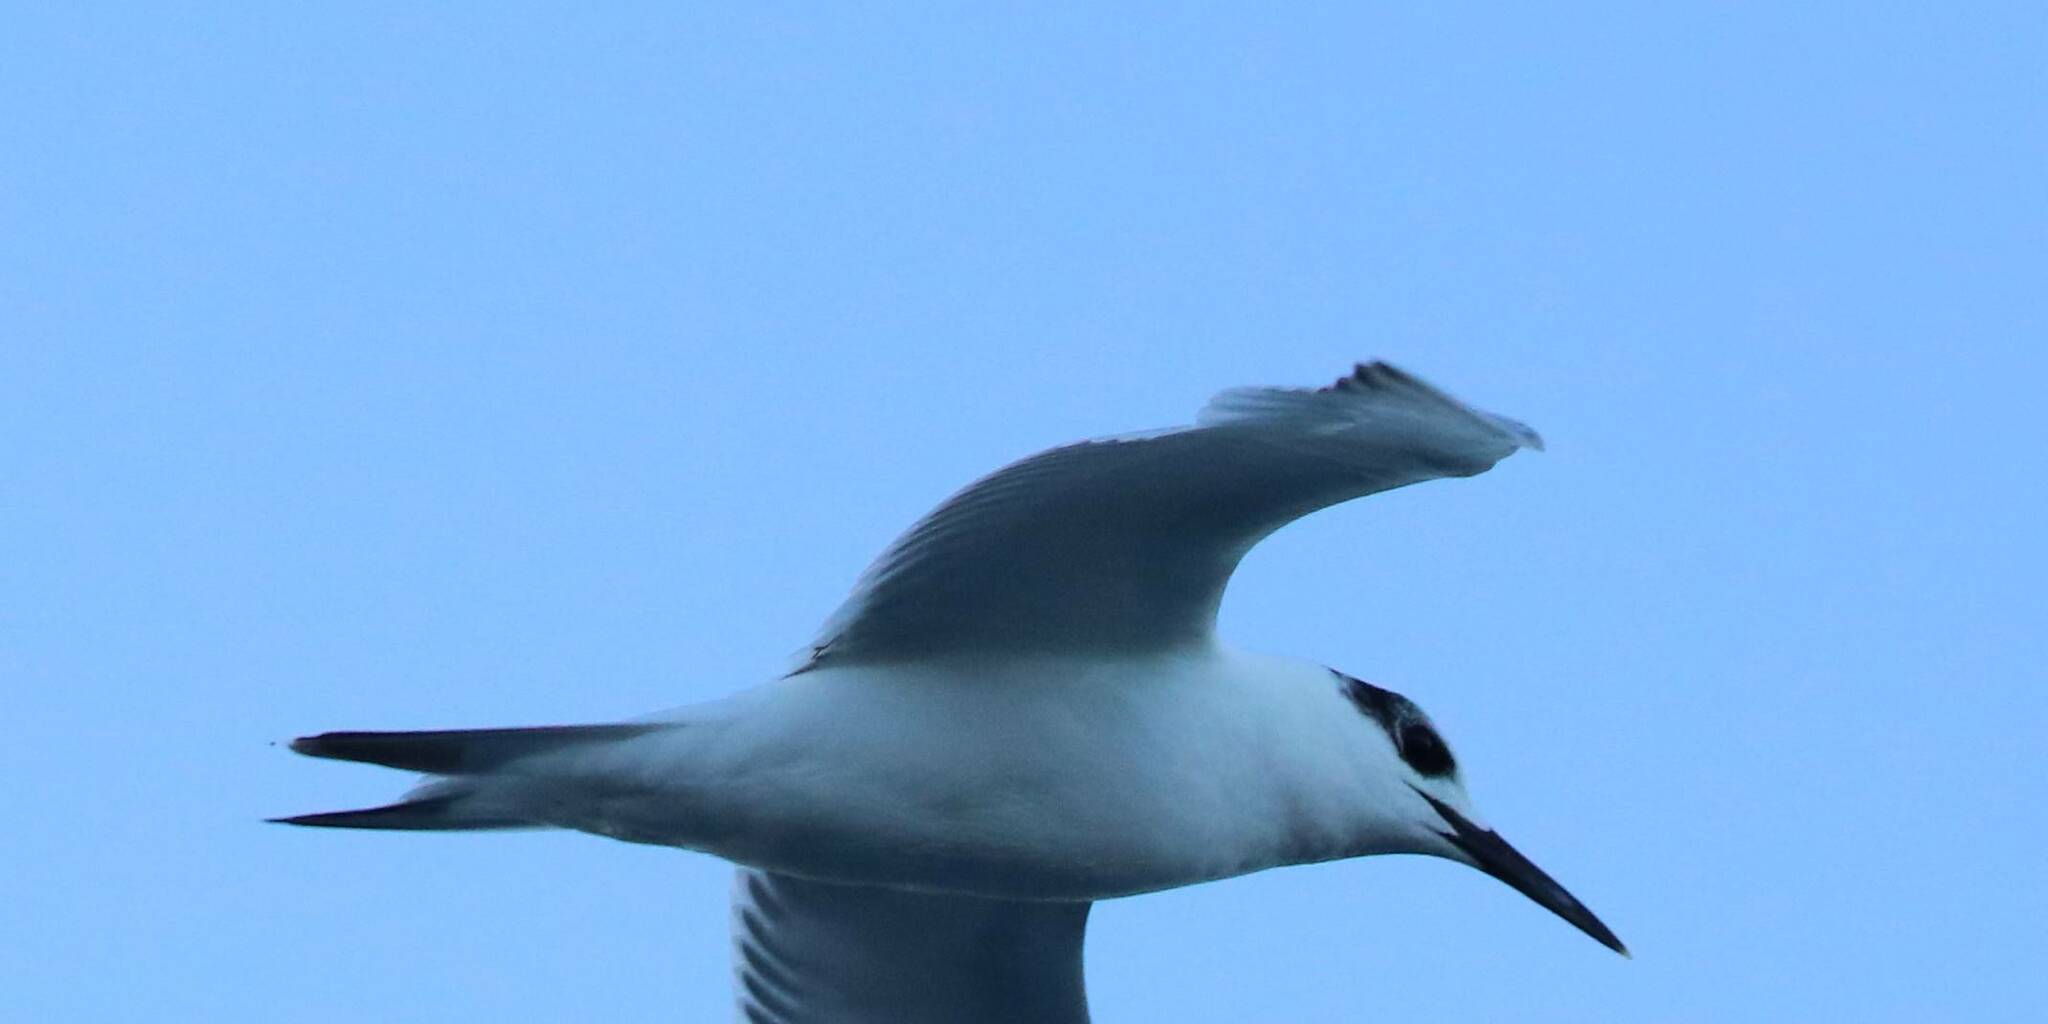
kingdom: Animalia
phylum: Chordata
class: Aves
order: Charadriiformes
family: Laridae
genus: Thalasseus
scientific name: Thalasseus sandvicensis
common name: Sandwich tern
